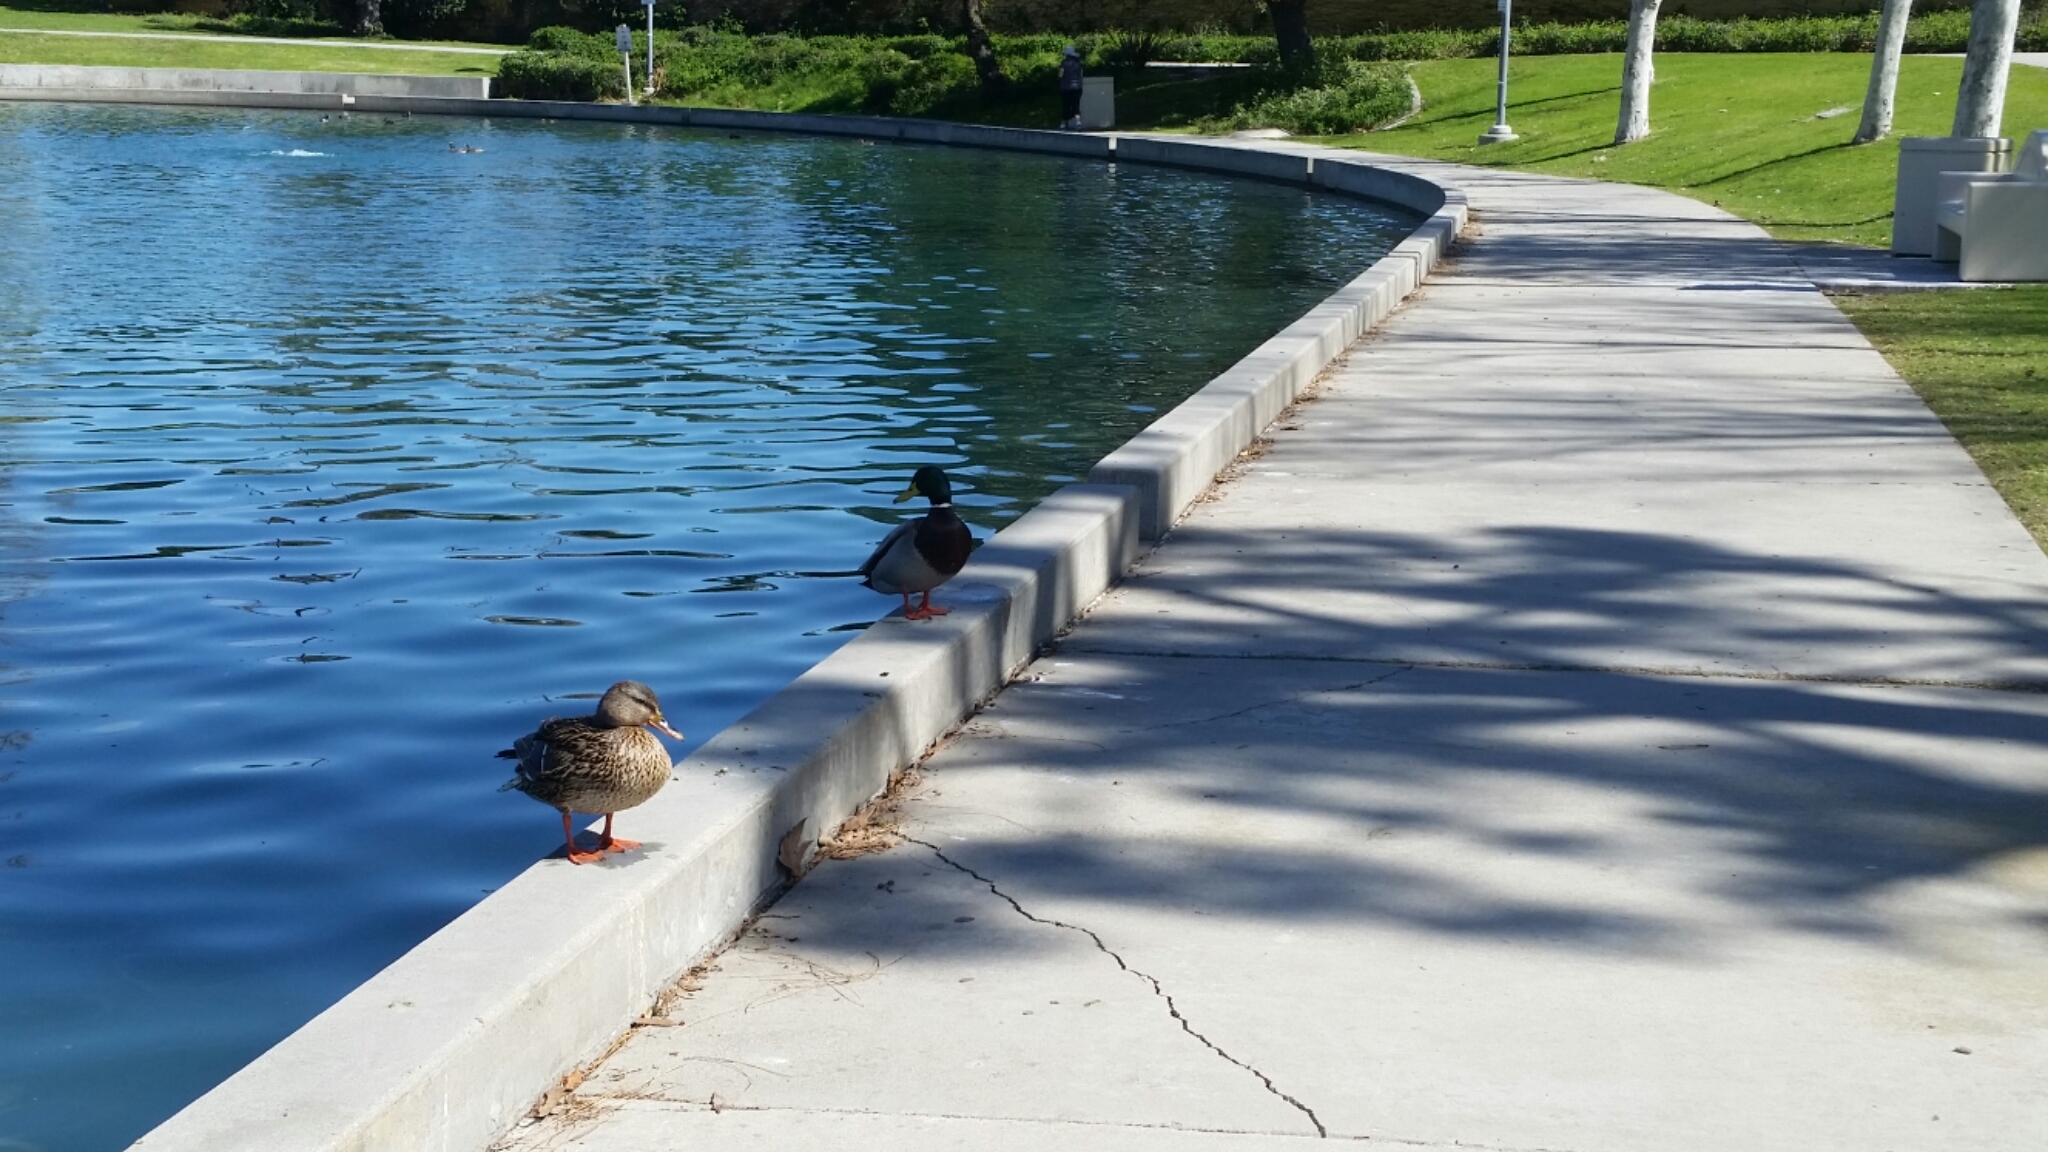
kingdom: Animalia
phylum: Chordata
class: Aves
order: Anseriformes
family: Anatidae
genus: Anas
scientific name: Anas platyrhynchos
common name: Mallard
